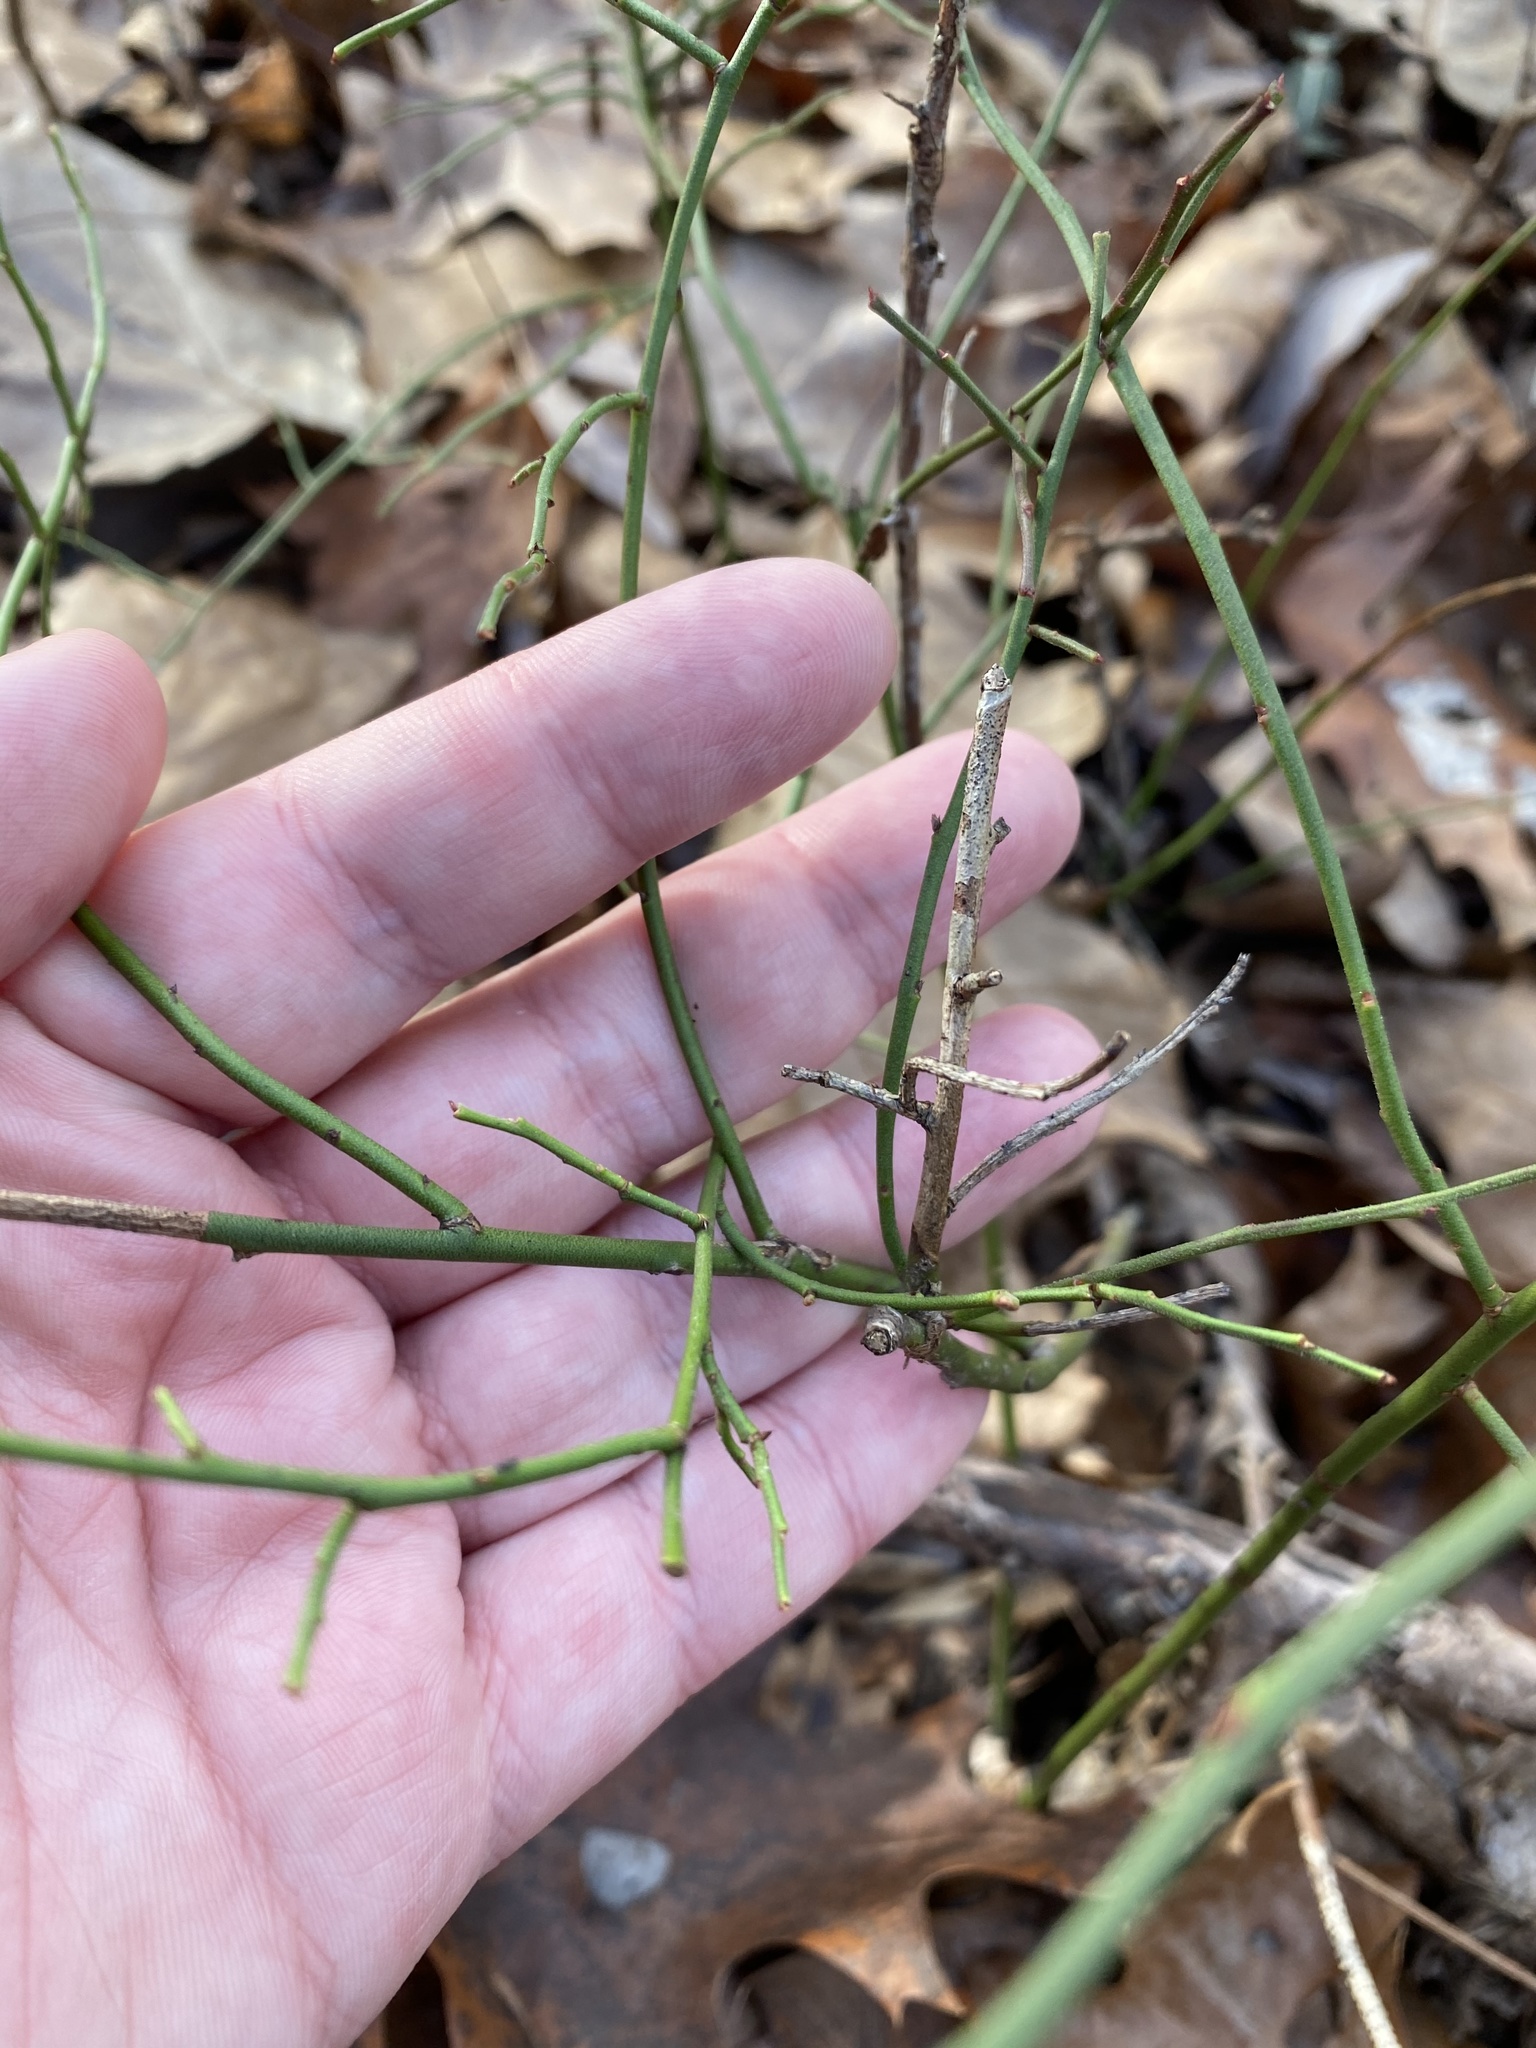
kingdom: Plantae
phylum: Tracheophyta
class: Magnoliopsida
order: Ericales
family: Ericaceae
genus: Vaccinium
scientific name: Vaccinium pallidum
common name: Blue ridge blueberry
